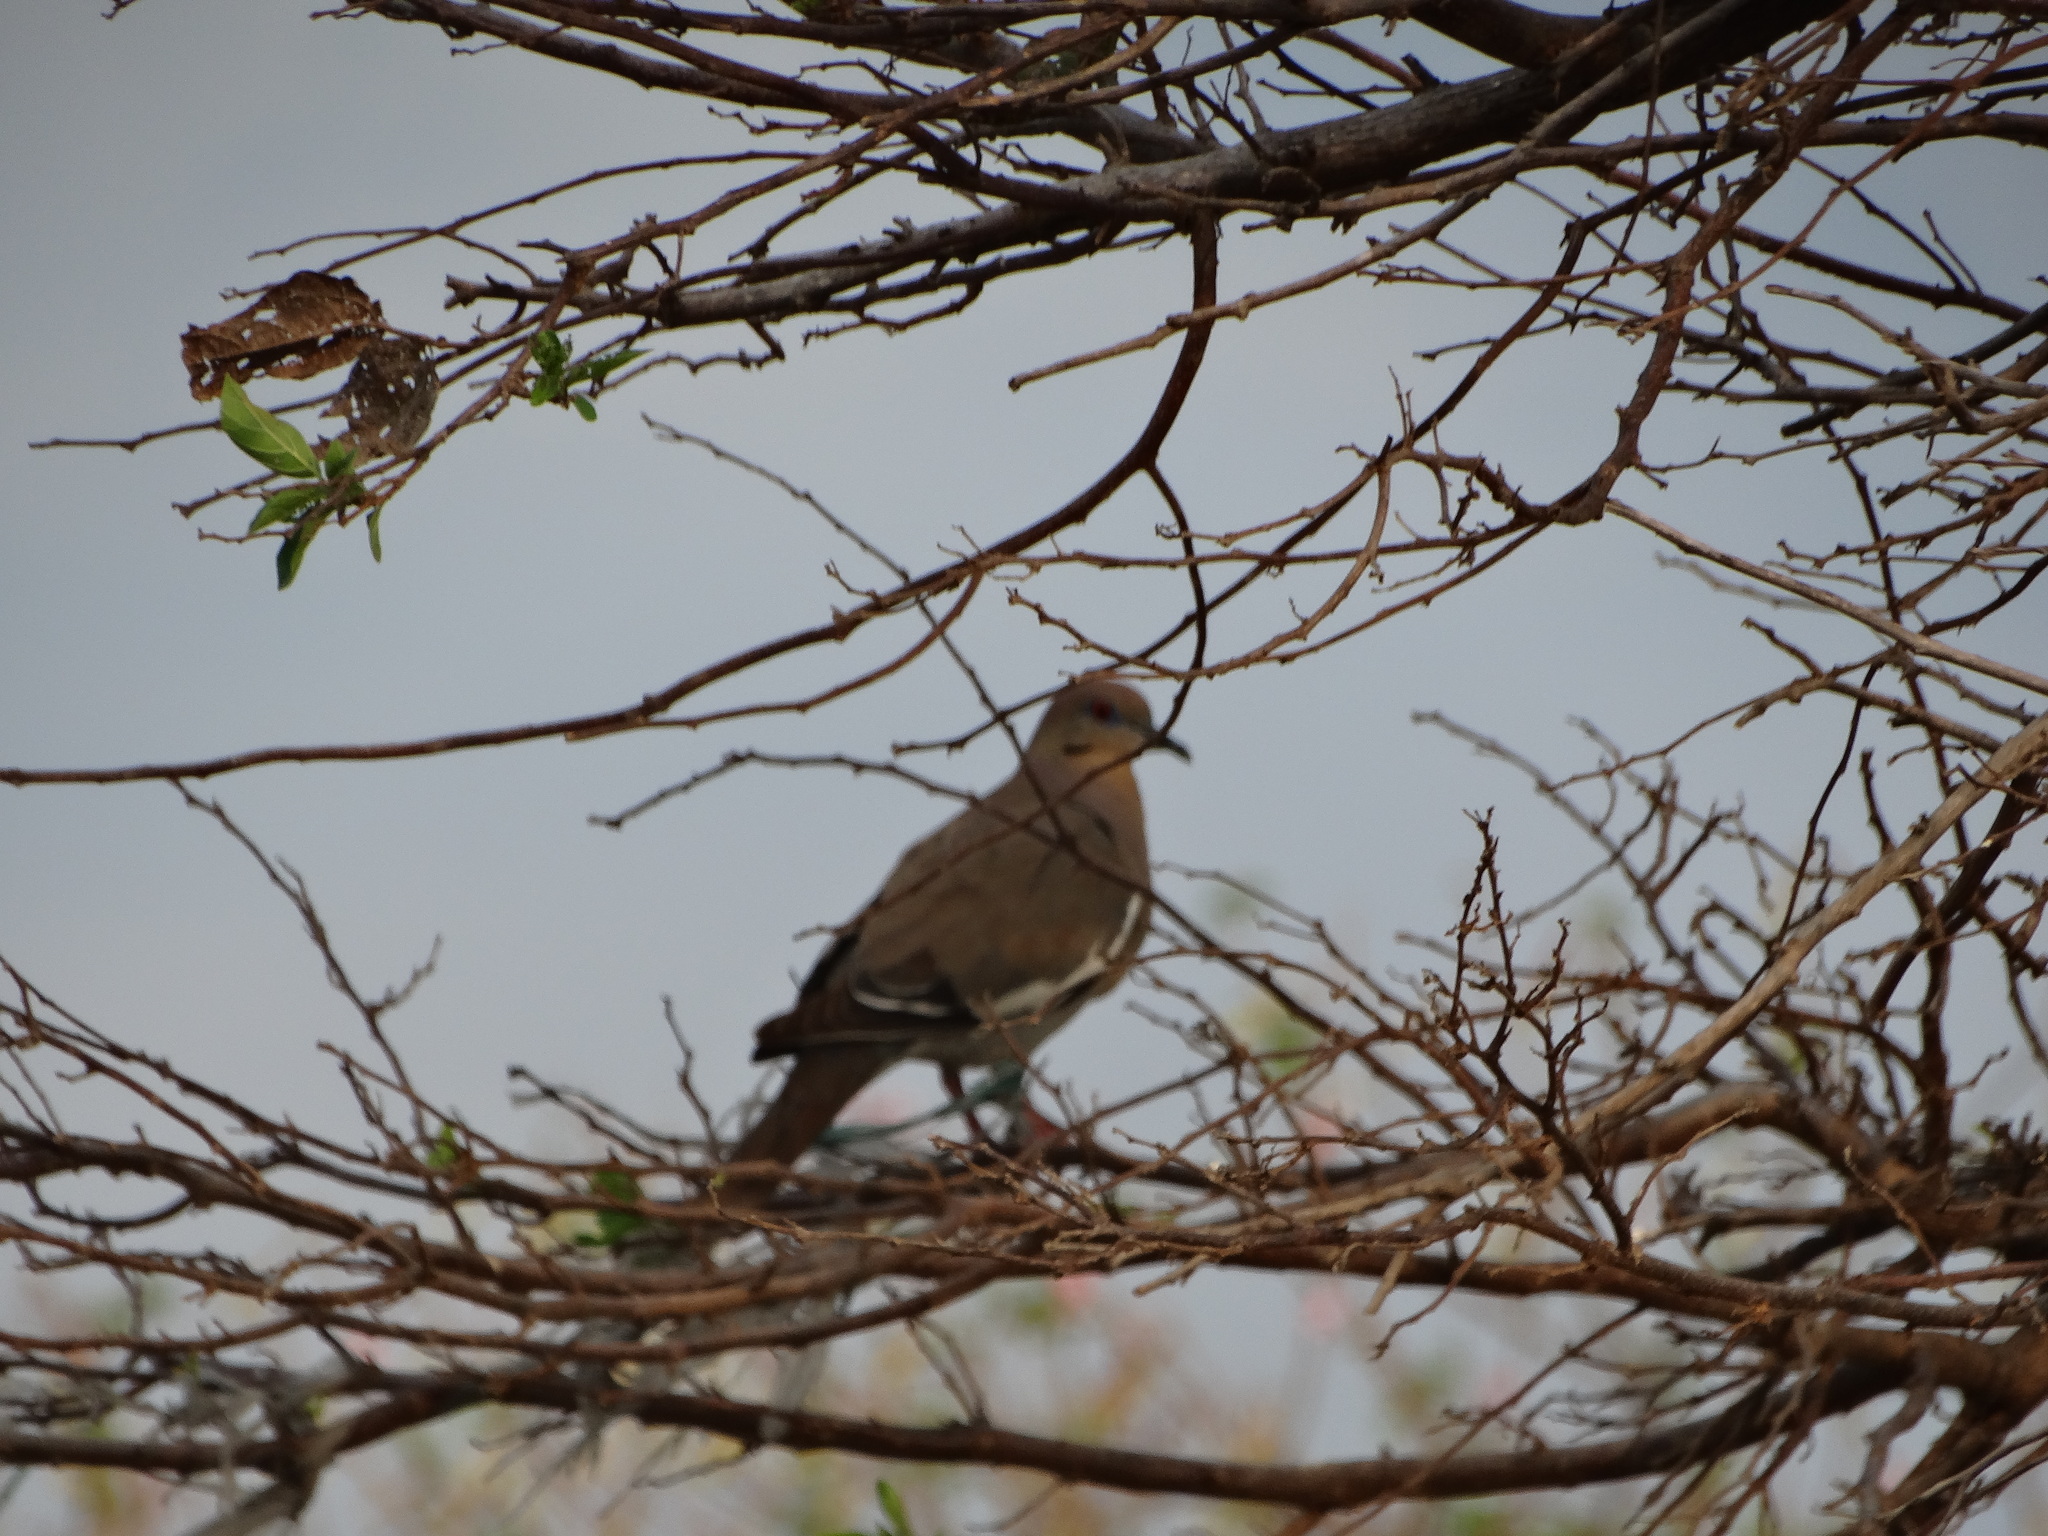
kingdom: Animalia
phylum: Chordata
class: Aves
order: Columbiformes
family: Columbidae
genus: Zenaida
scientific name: Zenaida asiatica
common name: White-winged dove
